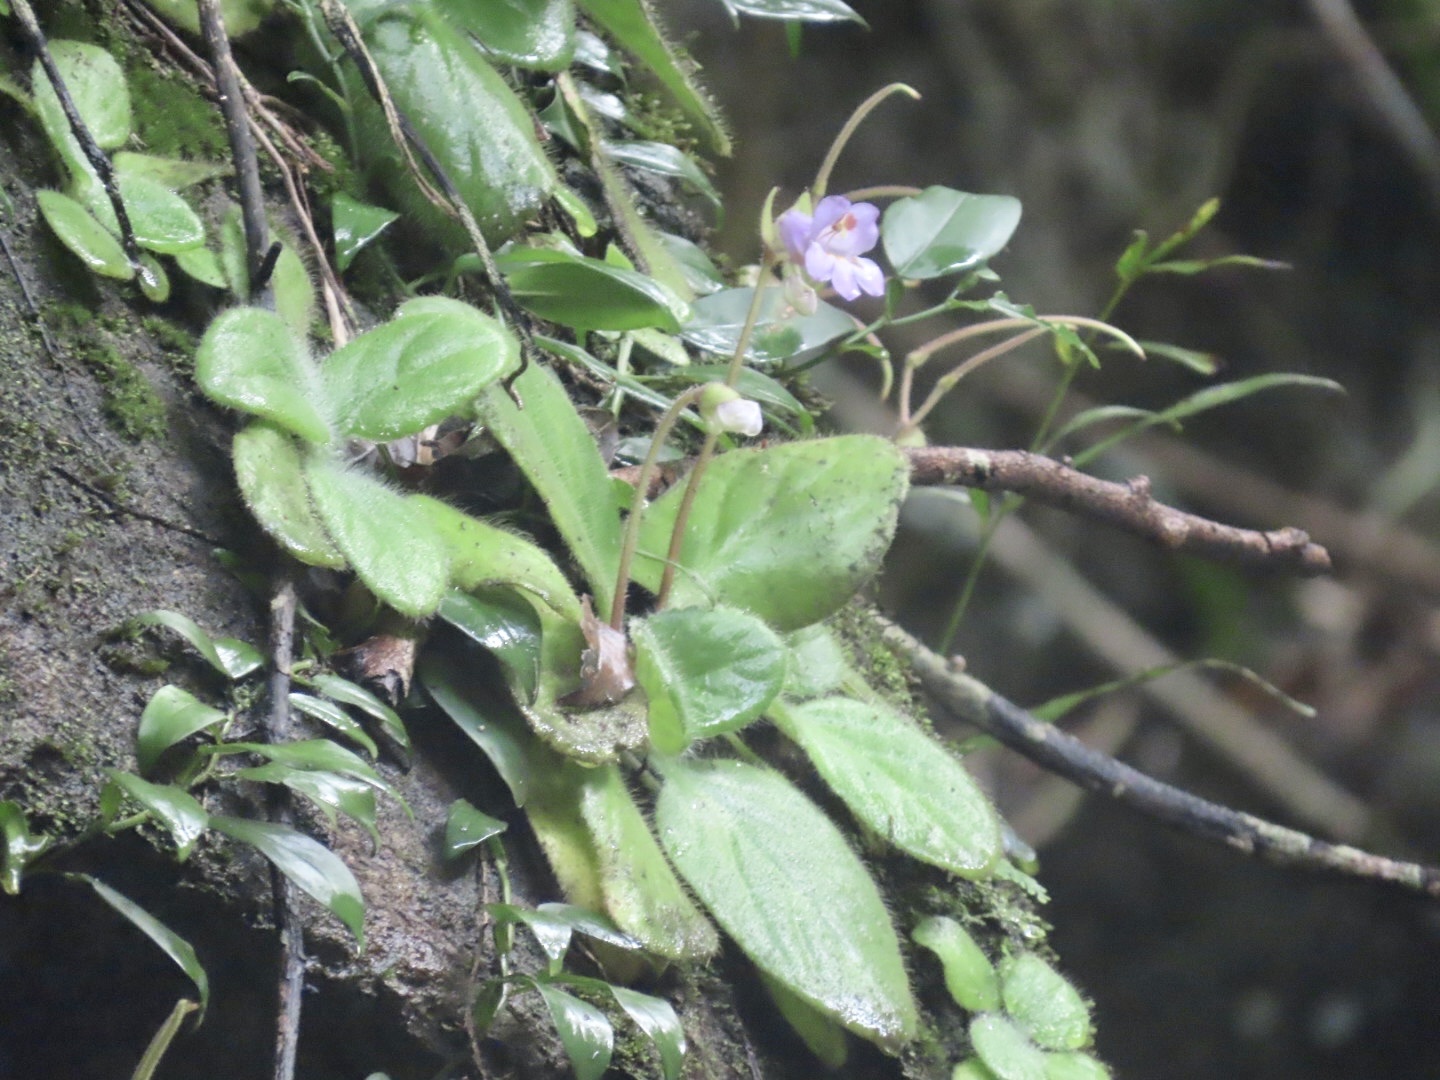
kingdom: Plantae
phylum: Tracheophyta
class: Magnoliopsida
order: Lamiales
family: Gesneriaceae
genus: Primulina
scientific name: Primulina dryas
